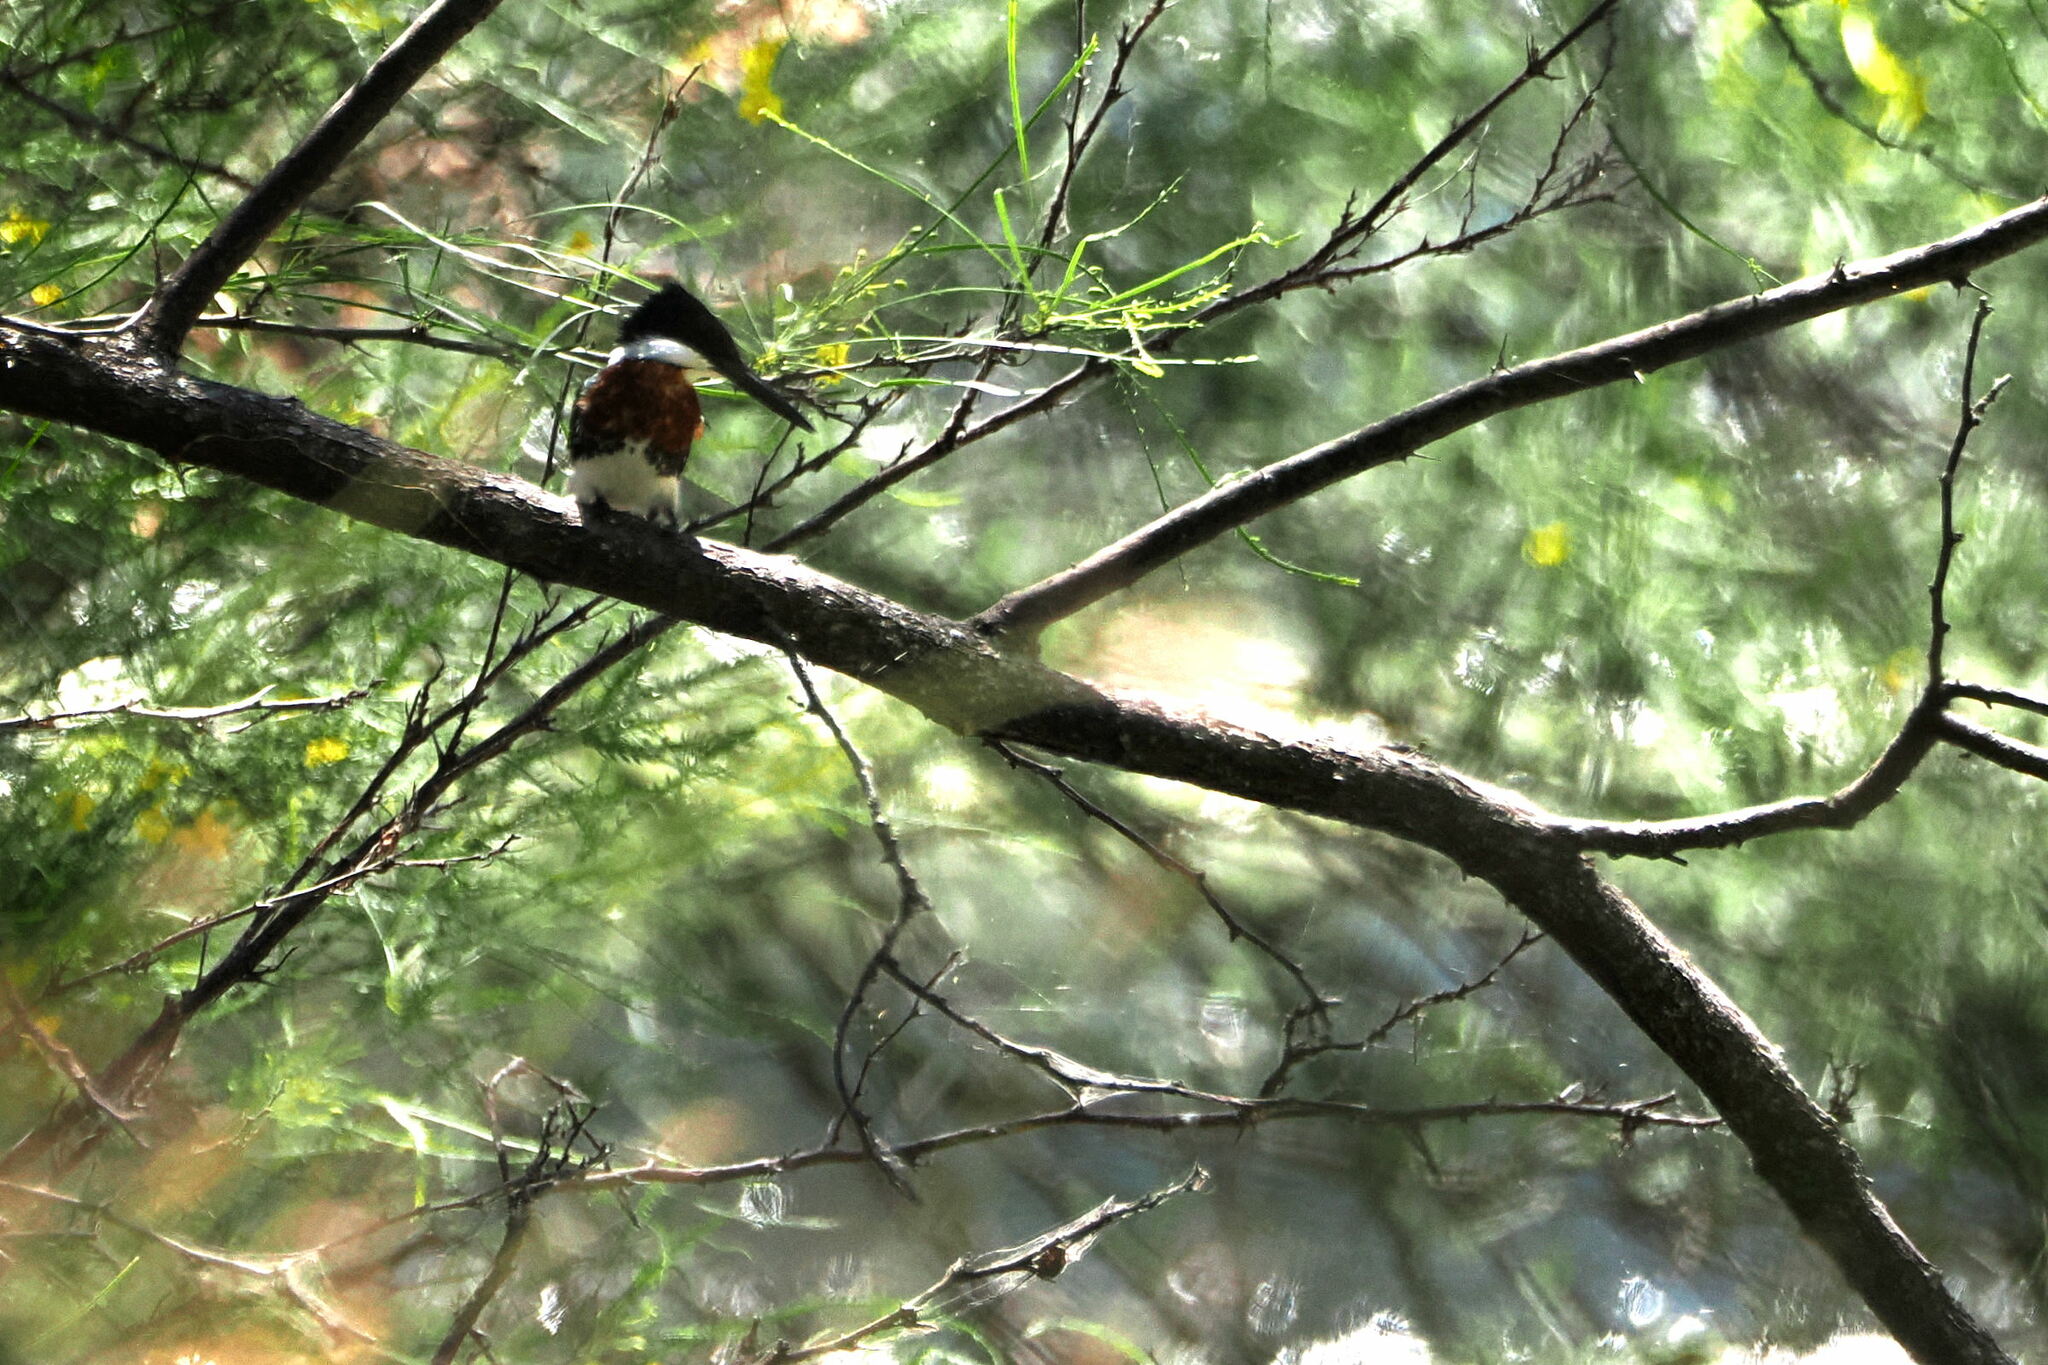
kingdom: Animalia
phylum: Chordata
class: Aves
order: Coraciiformes
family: Alcedinidae
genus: Chloroceryle
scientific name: Chloroceryle americana
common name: Green kingfisher
